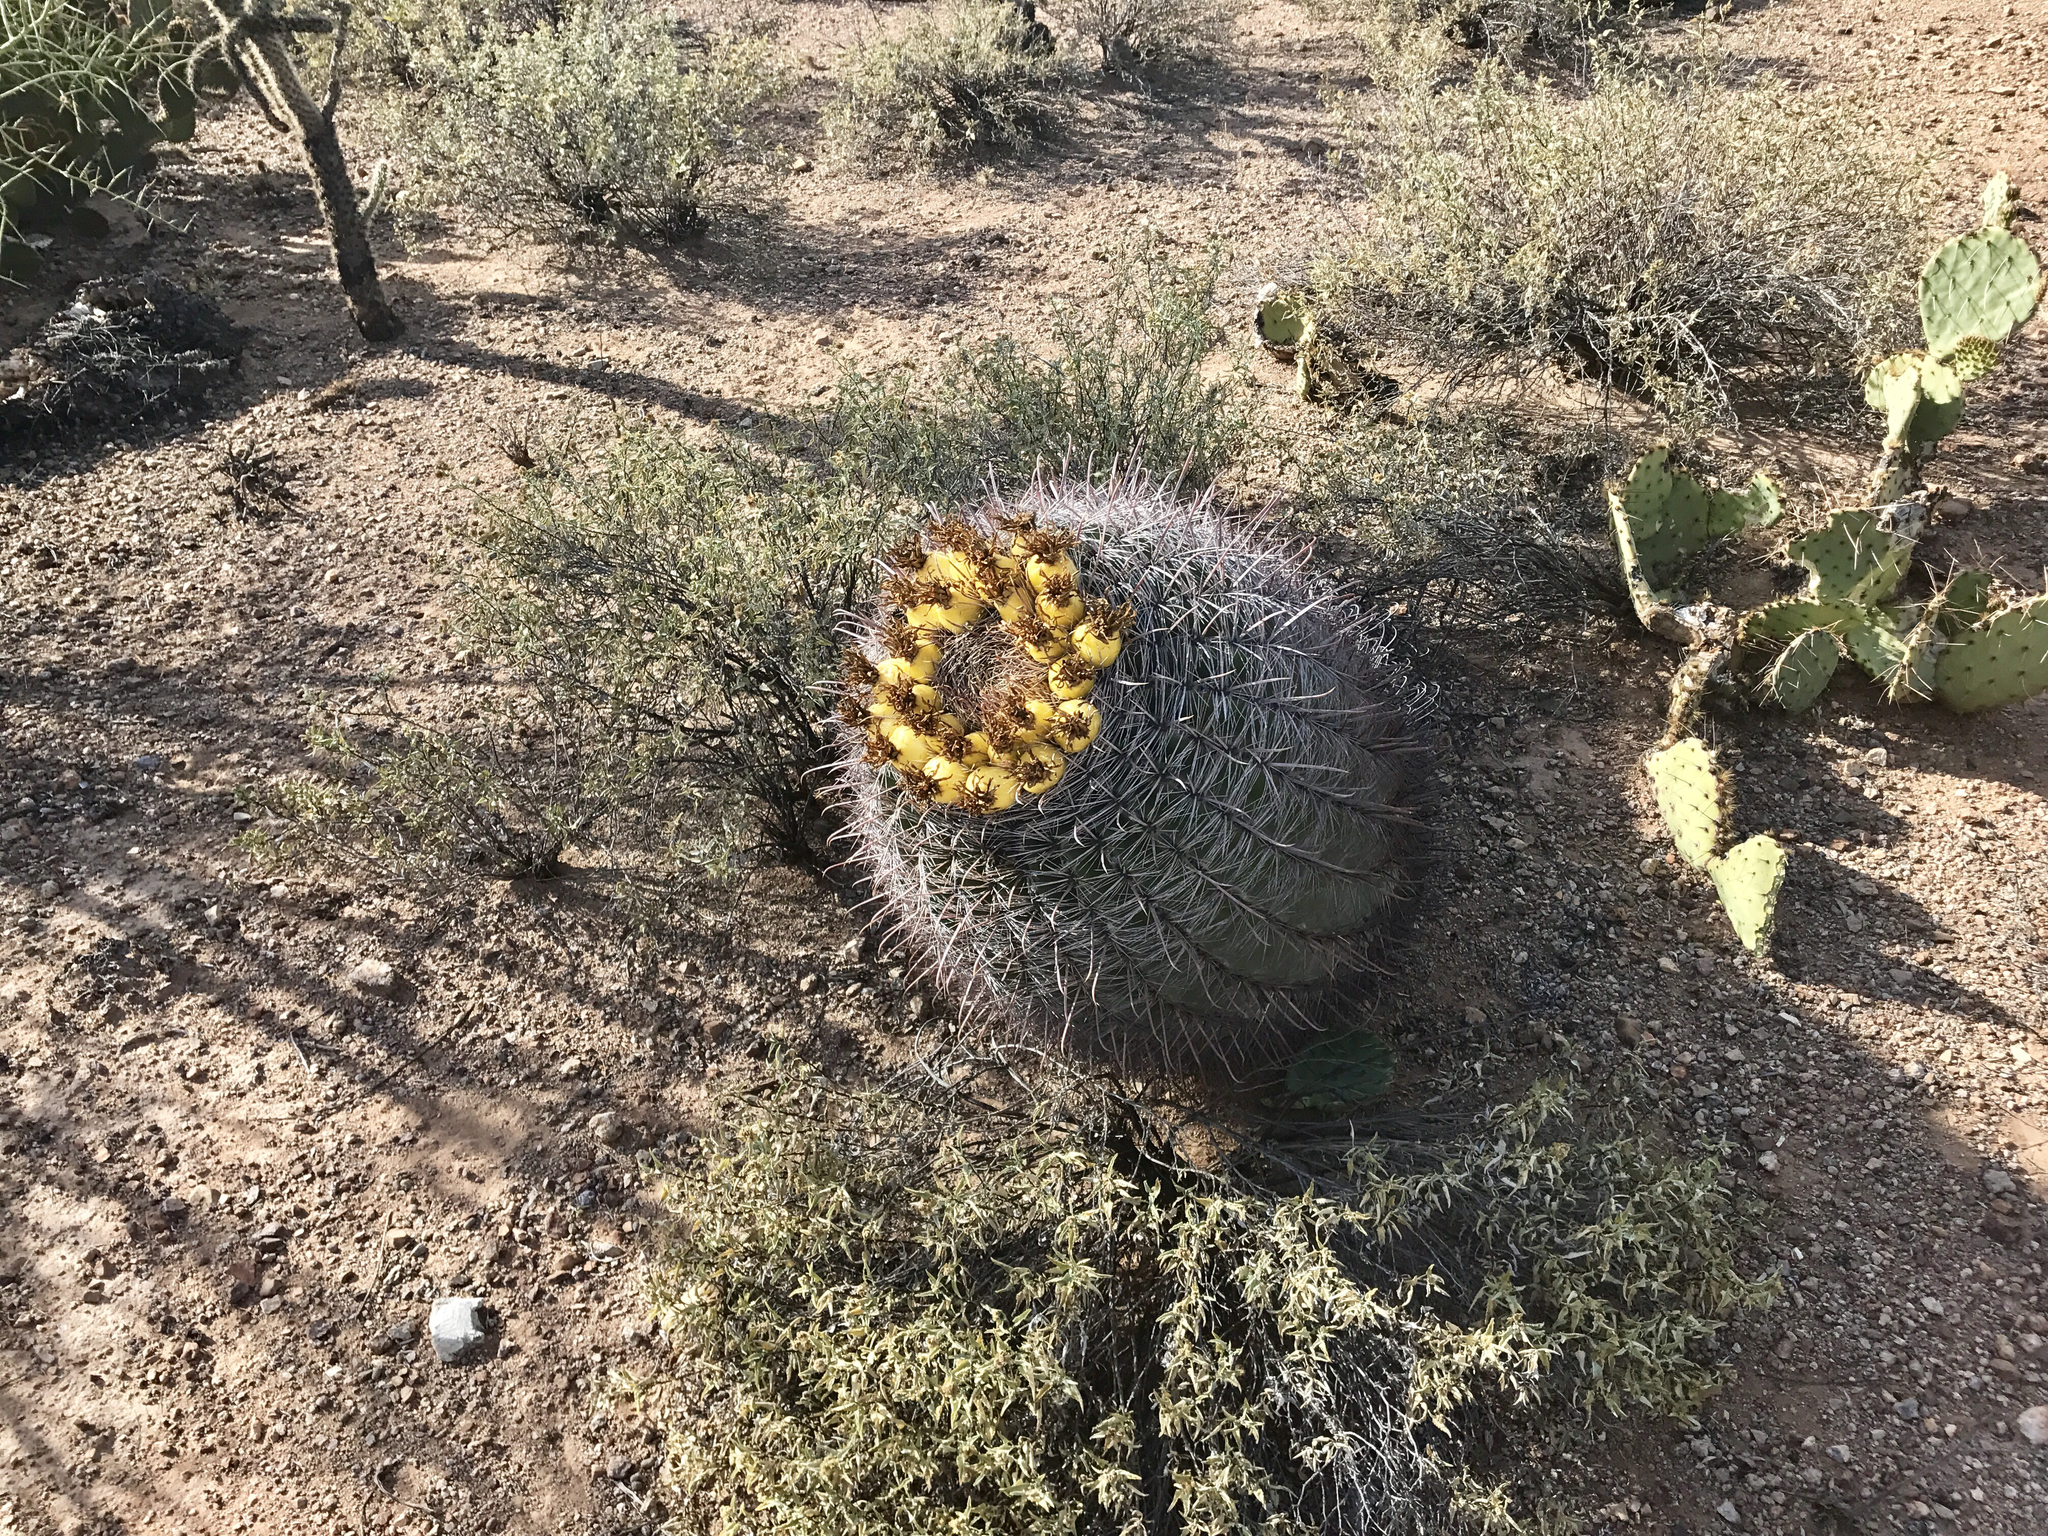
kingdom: Plantae
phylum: Tracheophyta
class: Magnoliopsida
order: Caryophyllales
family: Cactaceae
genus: Ferocactus
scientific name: Ferocactus wislizeni
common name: Candy barrel cactus
